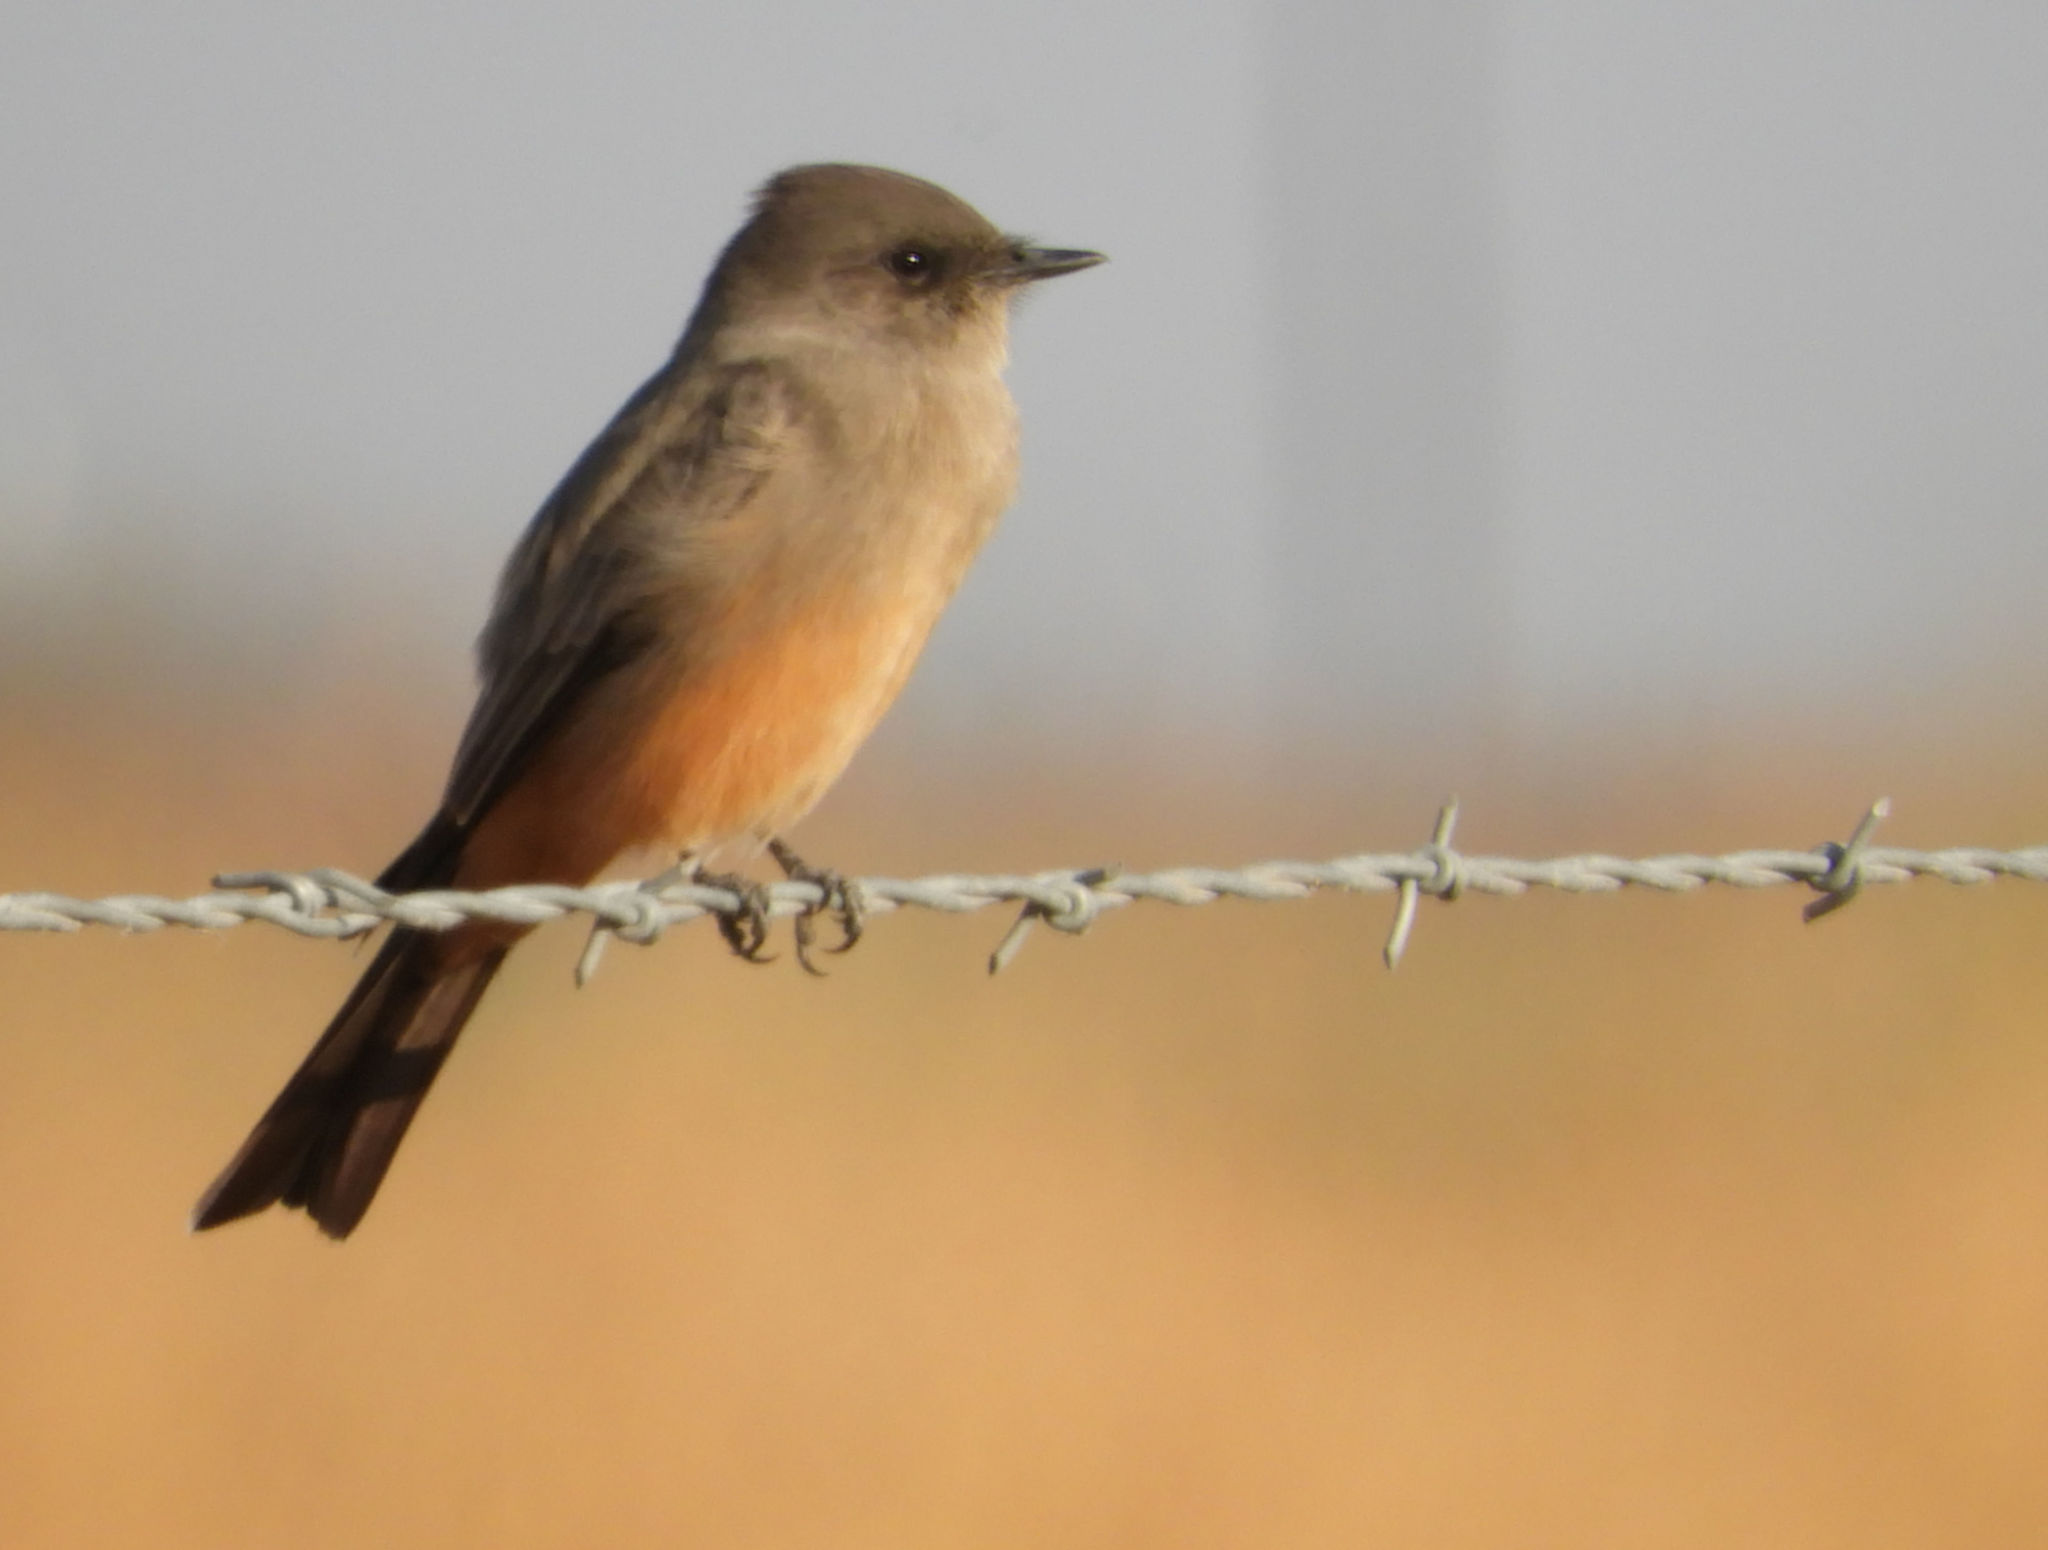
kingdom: Animalia
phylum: Chordata
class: Aves
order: Passeriformes
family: Tyrannidae
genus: Sayornis
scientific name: Sayornis saya
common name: Say's phoebe
